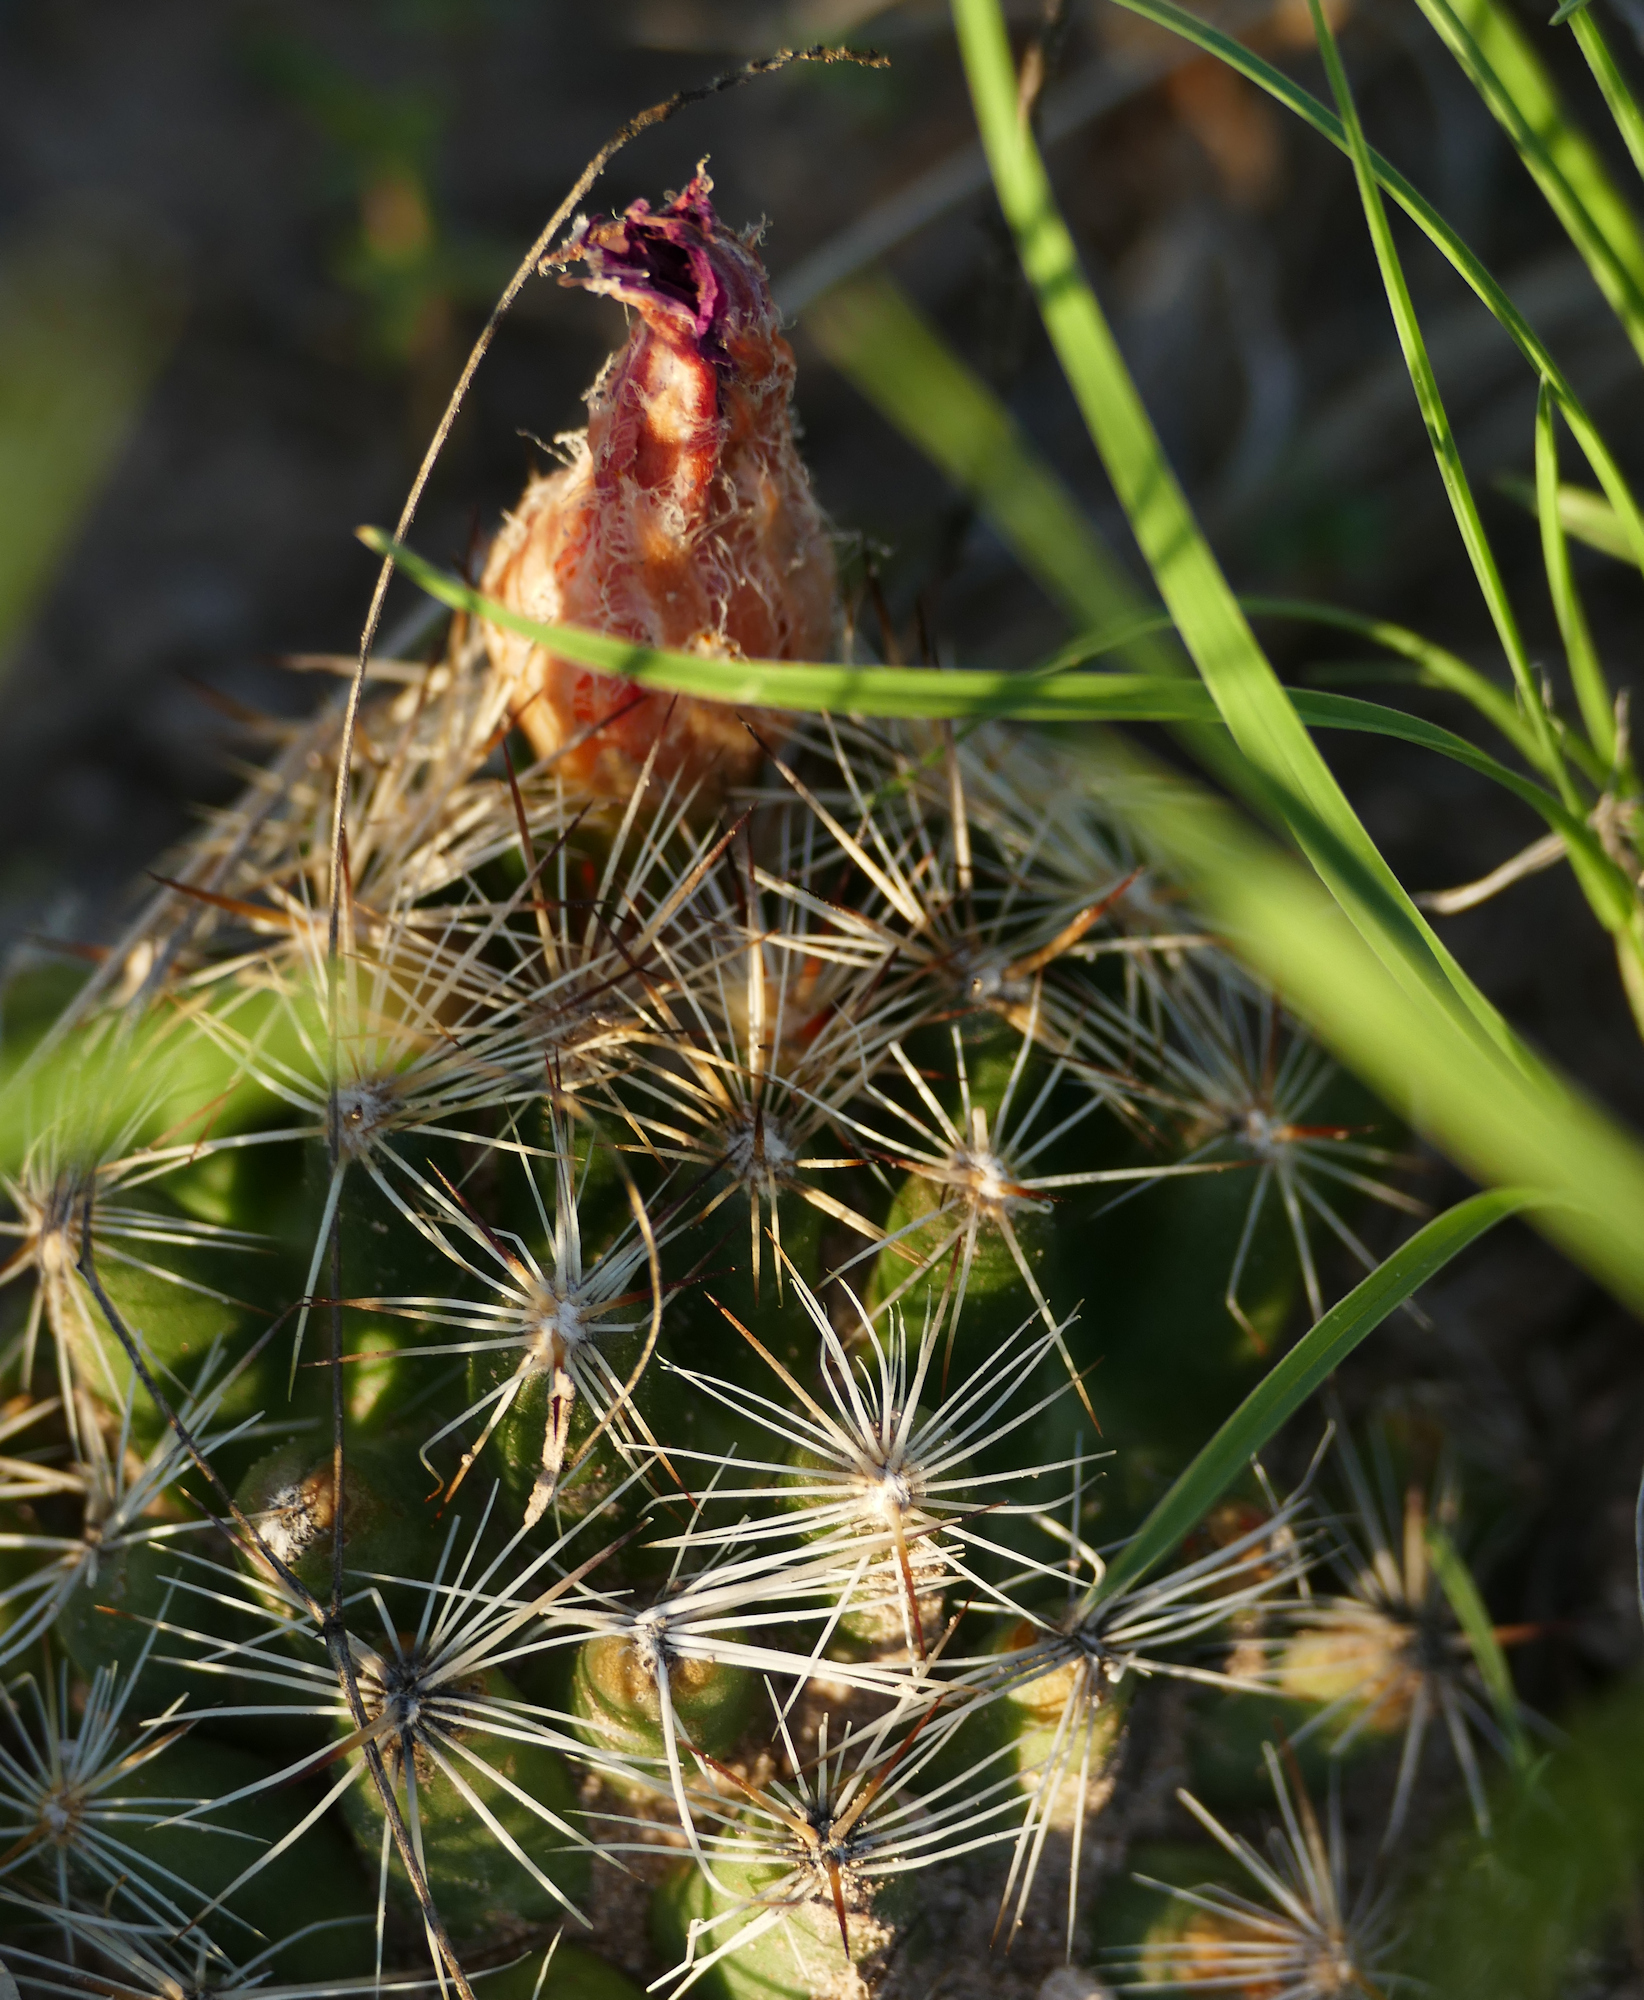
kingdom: Plantae
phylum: Tracheophyta
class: Magnoliopsida
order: Caryophyllales
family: Cactaceae
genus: Pelecyphora
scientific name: Pelecyphora vivipara
